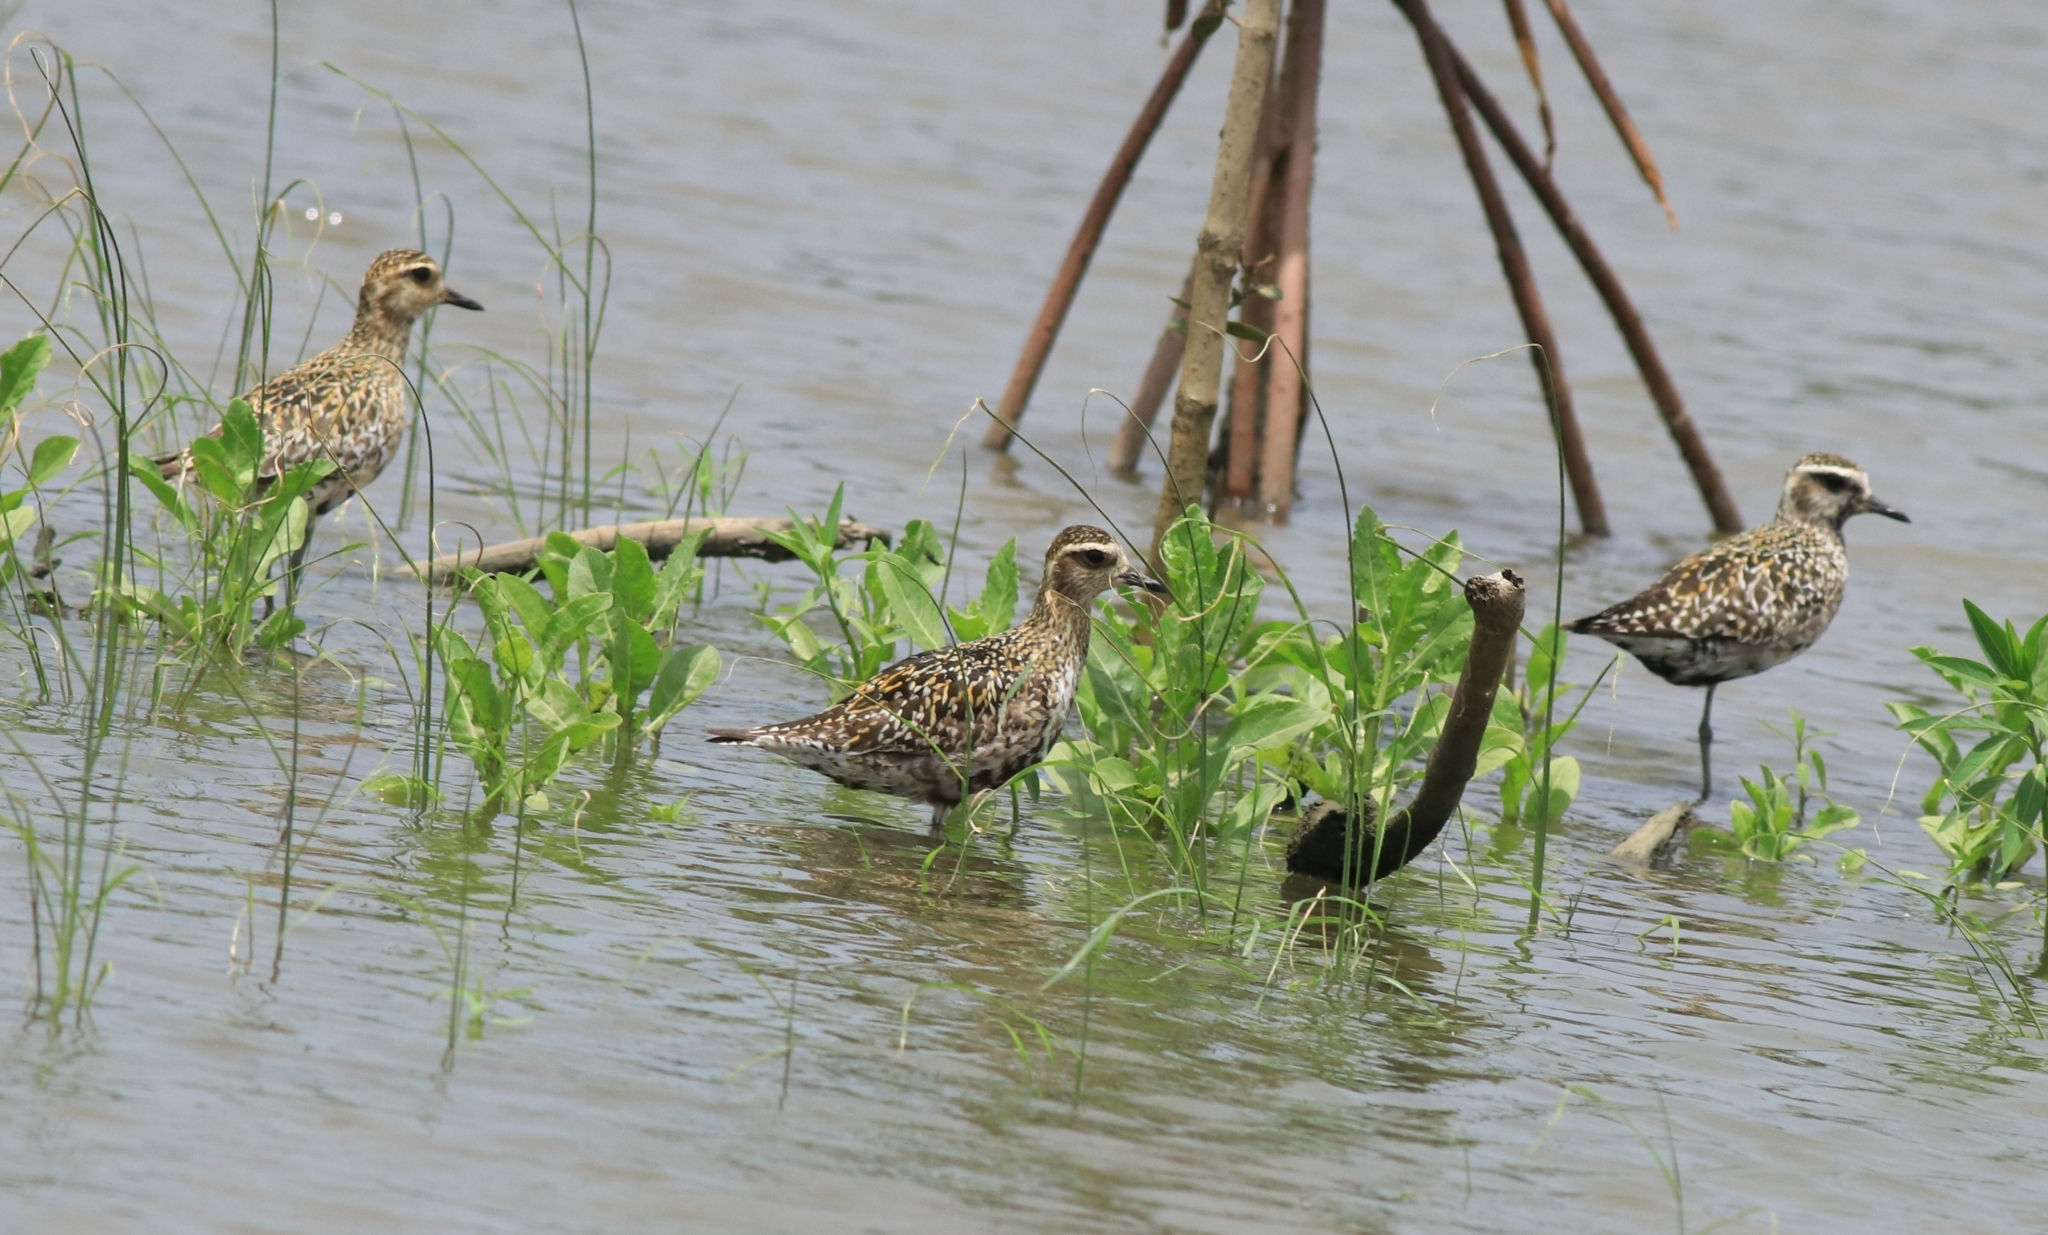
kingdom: Animalia
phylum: Chordata
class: Aves
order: Charadriiformes
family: Charadriidae
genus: Pluvialis
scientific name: Pluvialis fulva
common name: Pacific golden plover
